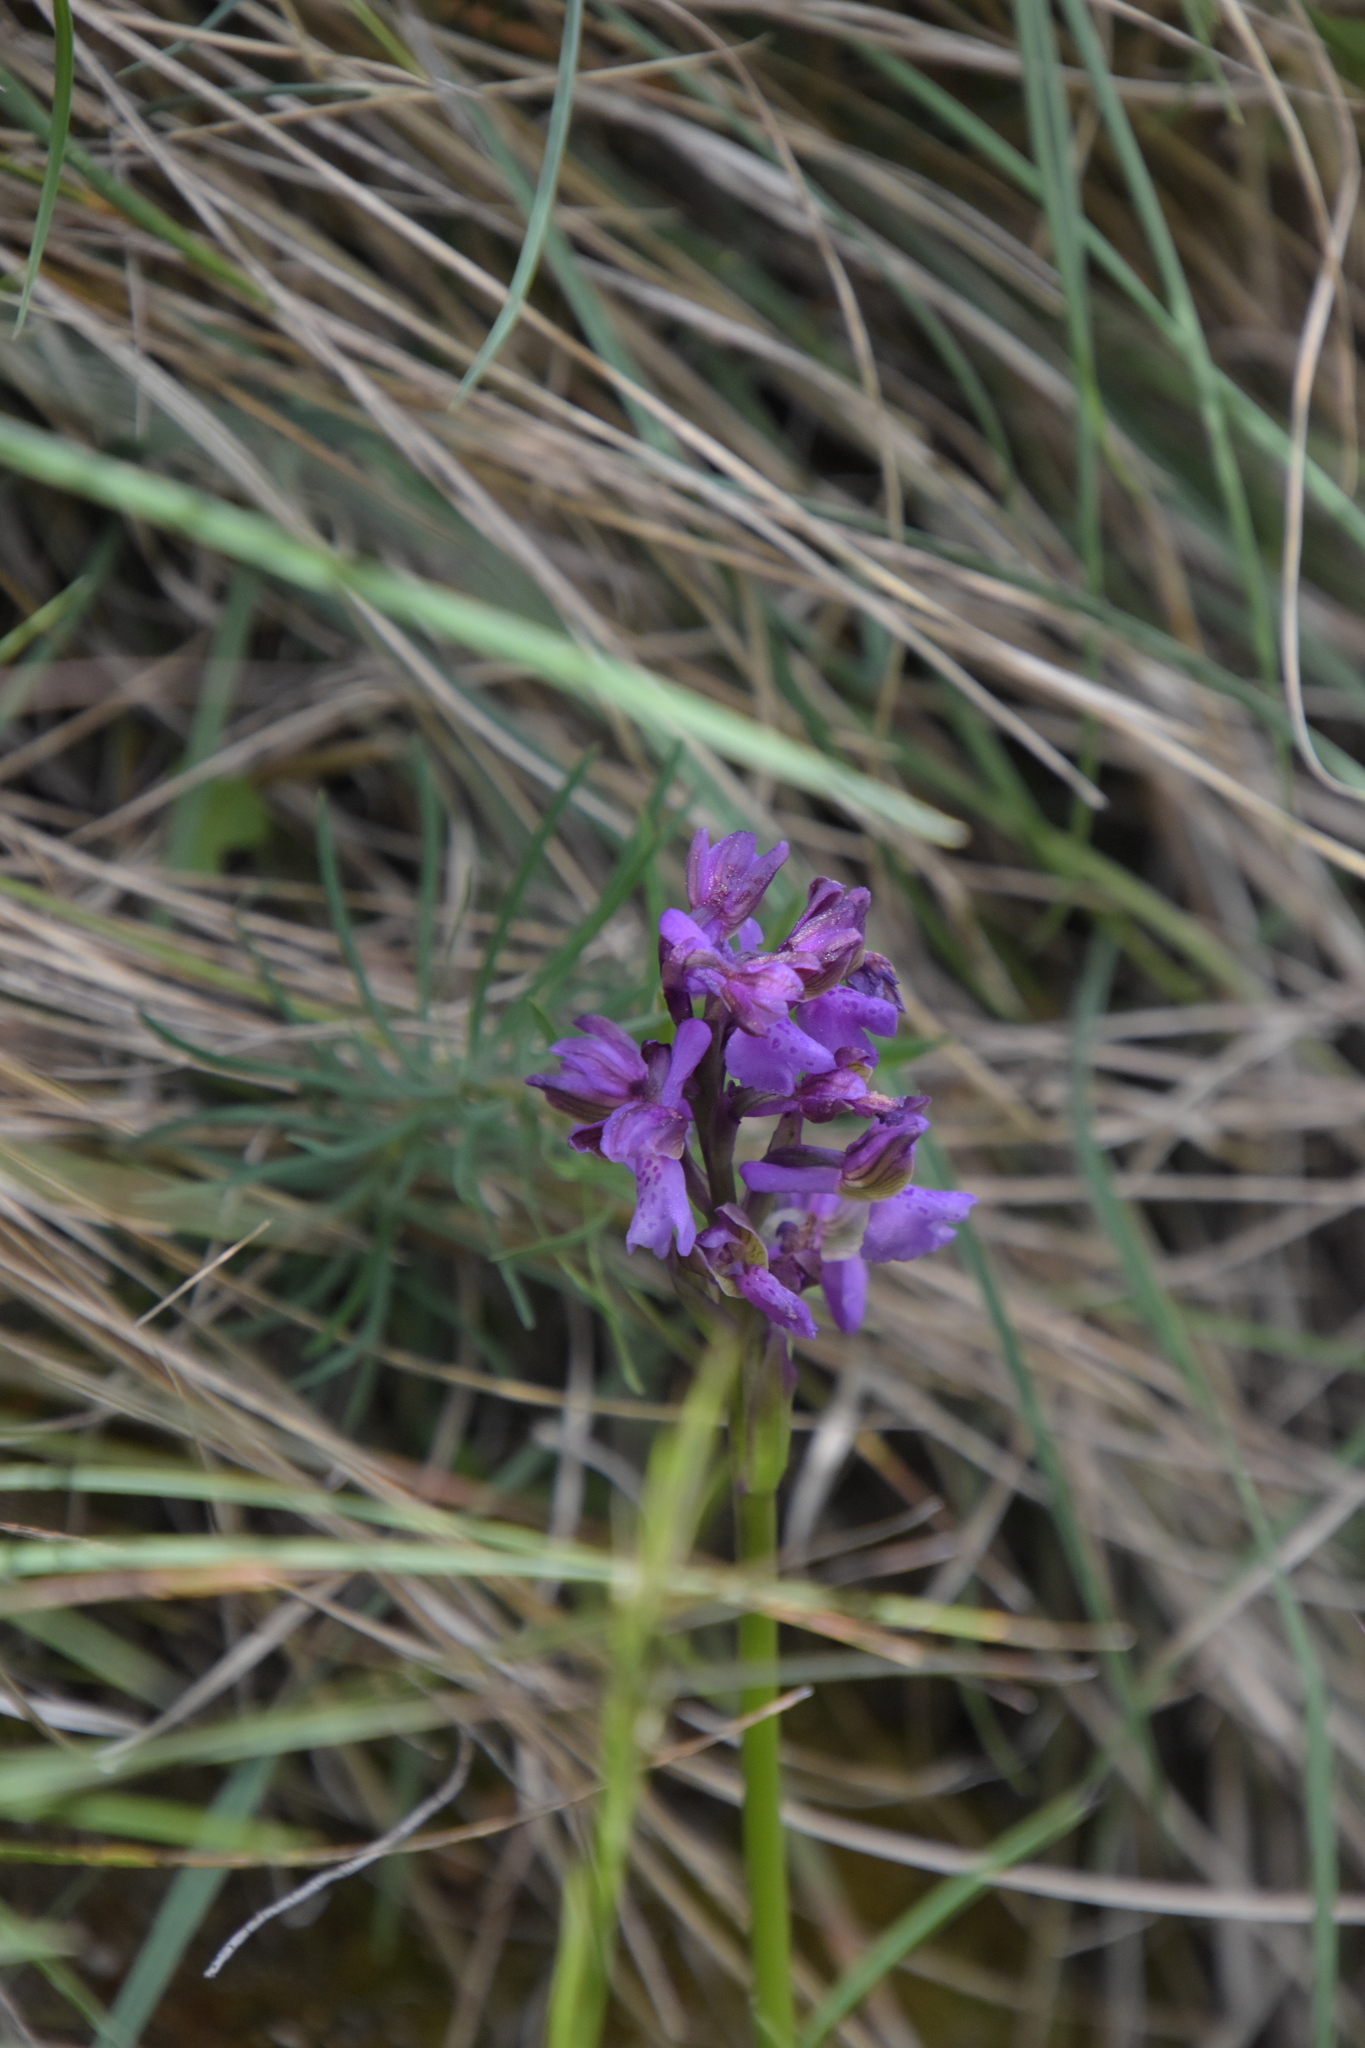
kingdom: Plantae
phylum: Tracheophyta
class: Liliopsida
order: Asparagales
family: Orchidaceae
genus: Anacamptis
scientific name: Anacamptis morio
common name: Green-winged orchid
